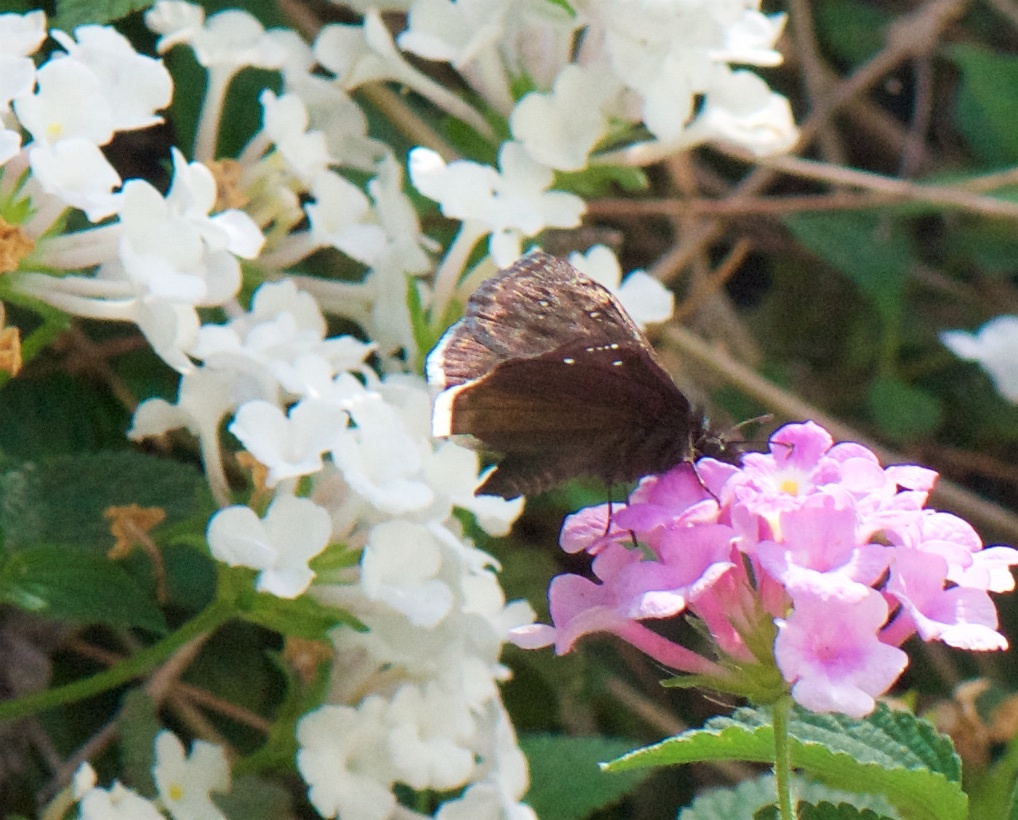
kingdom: Animalia
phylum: Arthropoda
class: Insecta
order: Lepidoptera
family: Hesperiidae
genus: Erynnis
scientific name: Erynnis tristis
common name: Mournful duskywing
